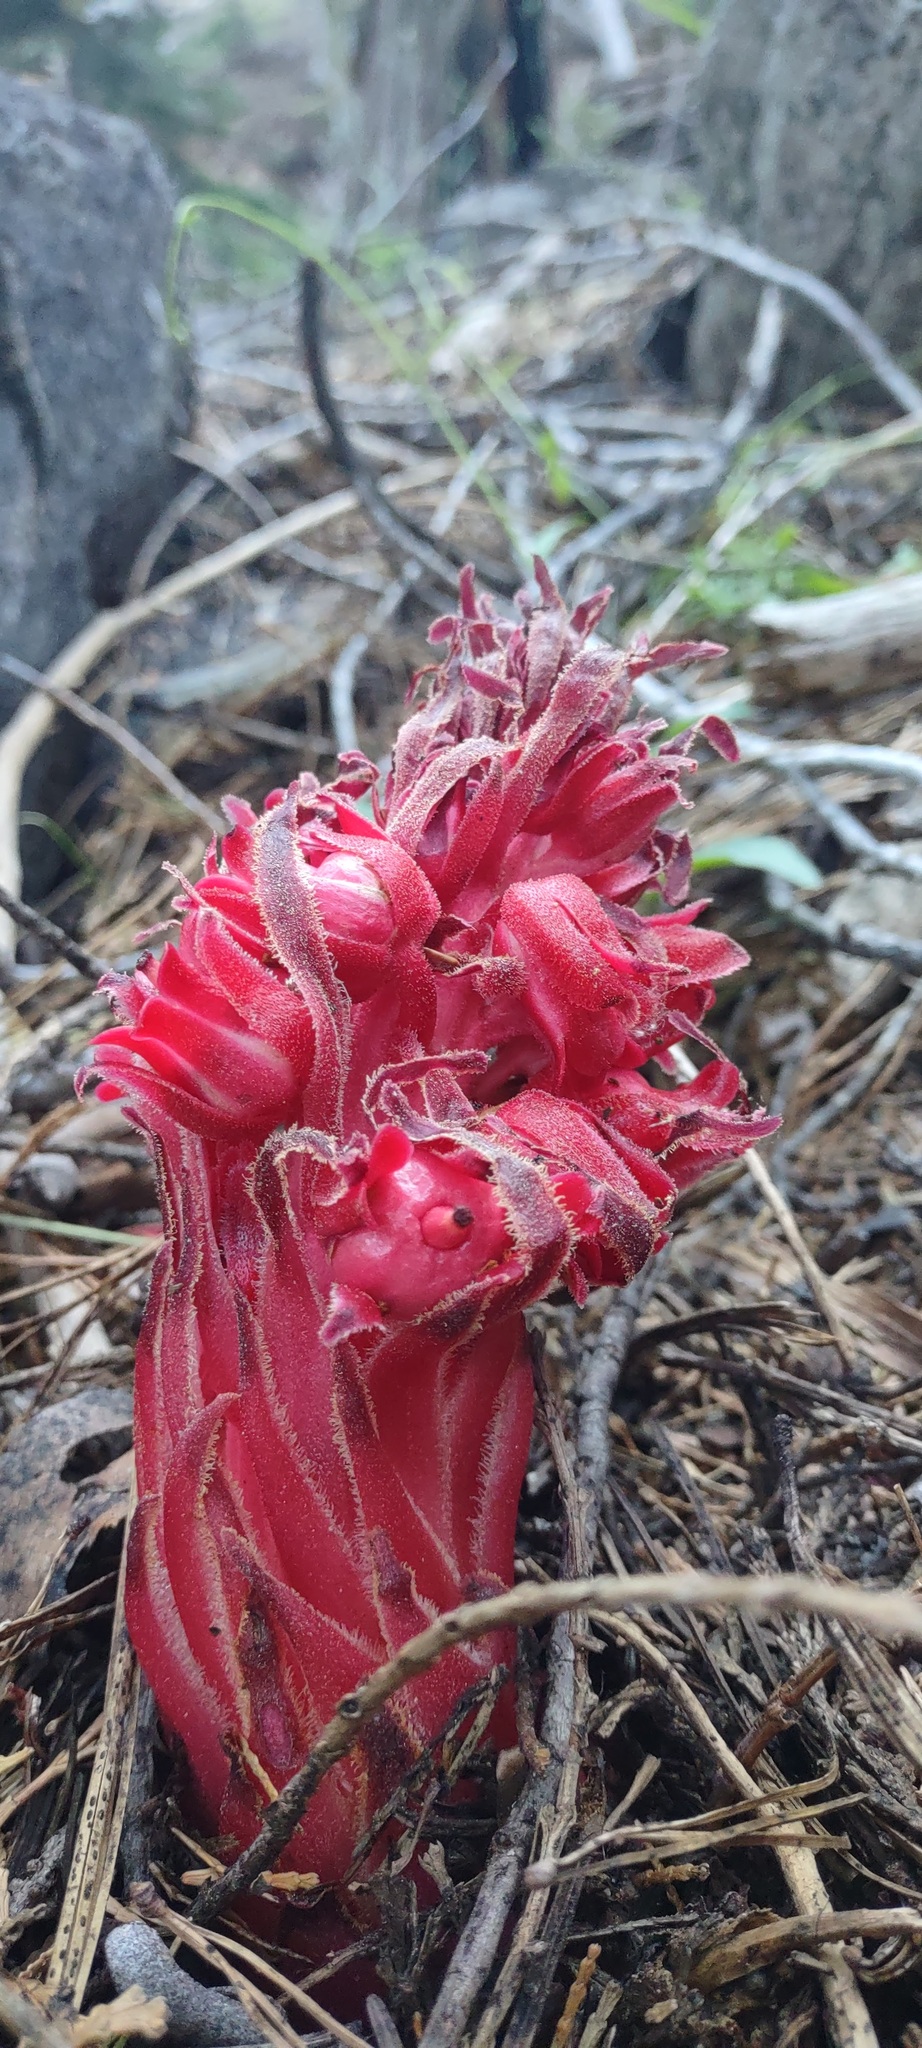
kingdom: Plantae
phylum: Tracheophyta
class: Magnoliopsida
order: Ericales
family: Ericaceae
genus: Sarcodes
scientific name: Sarcodes sanguinea
